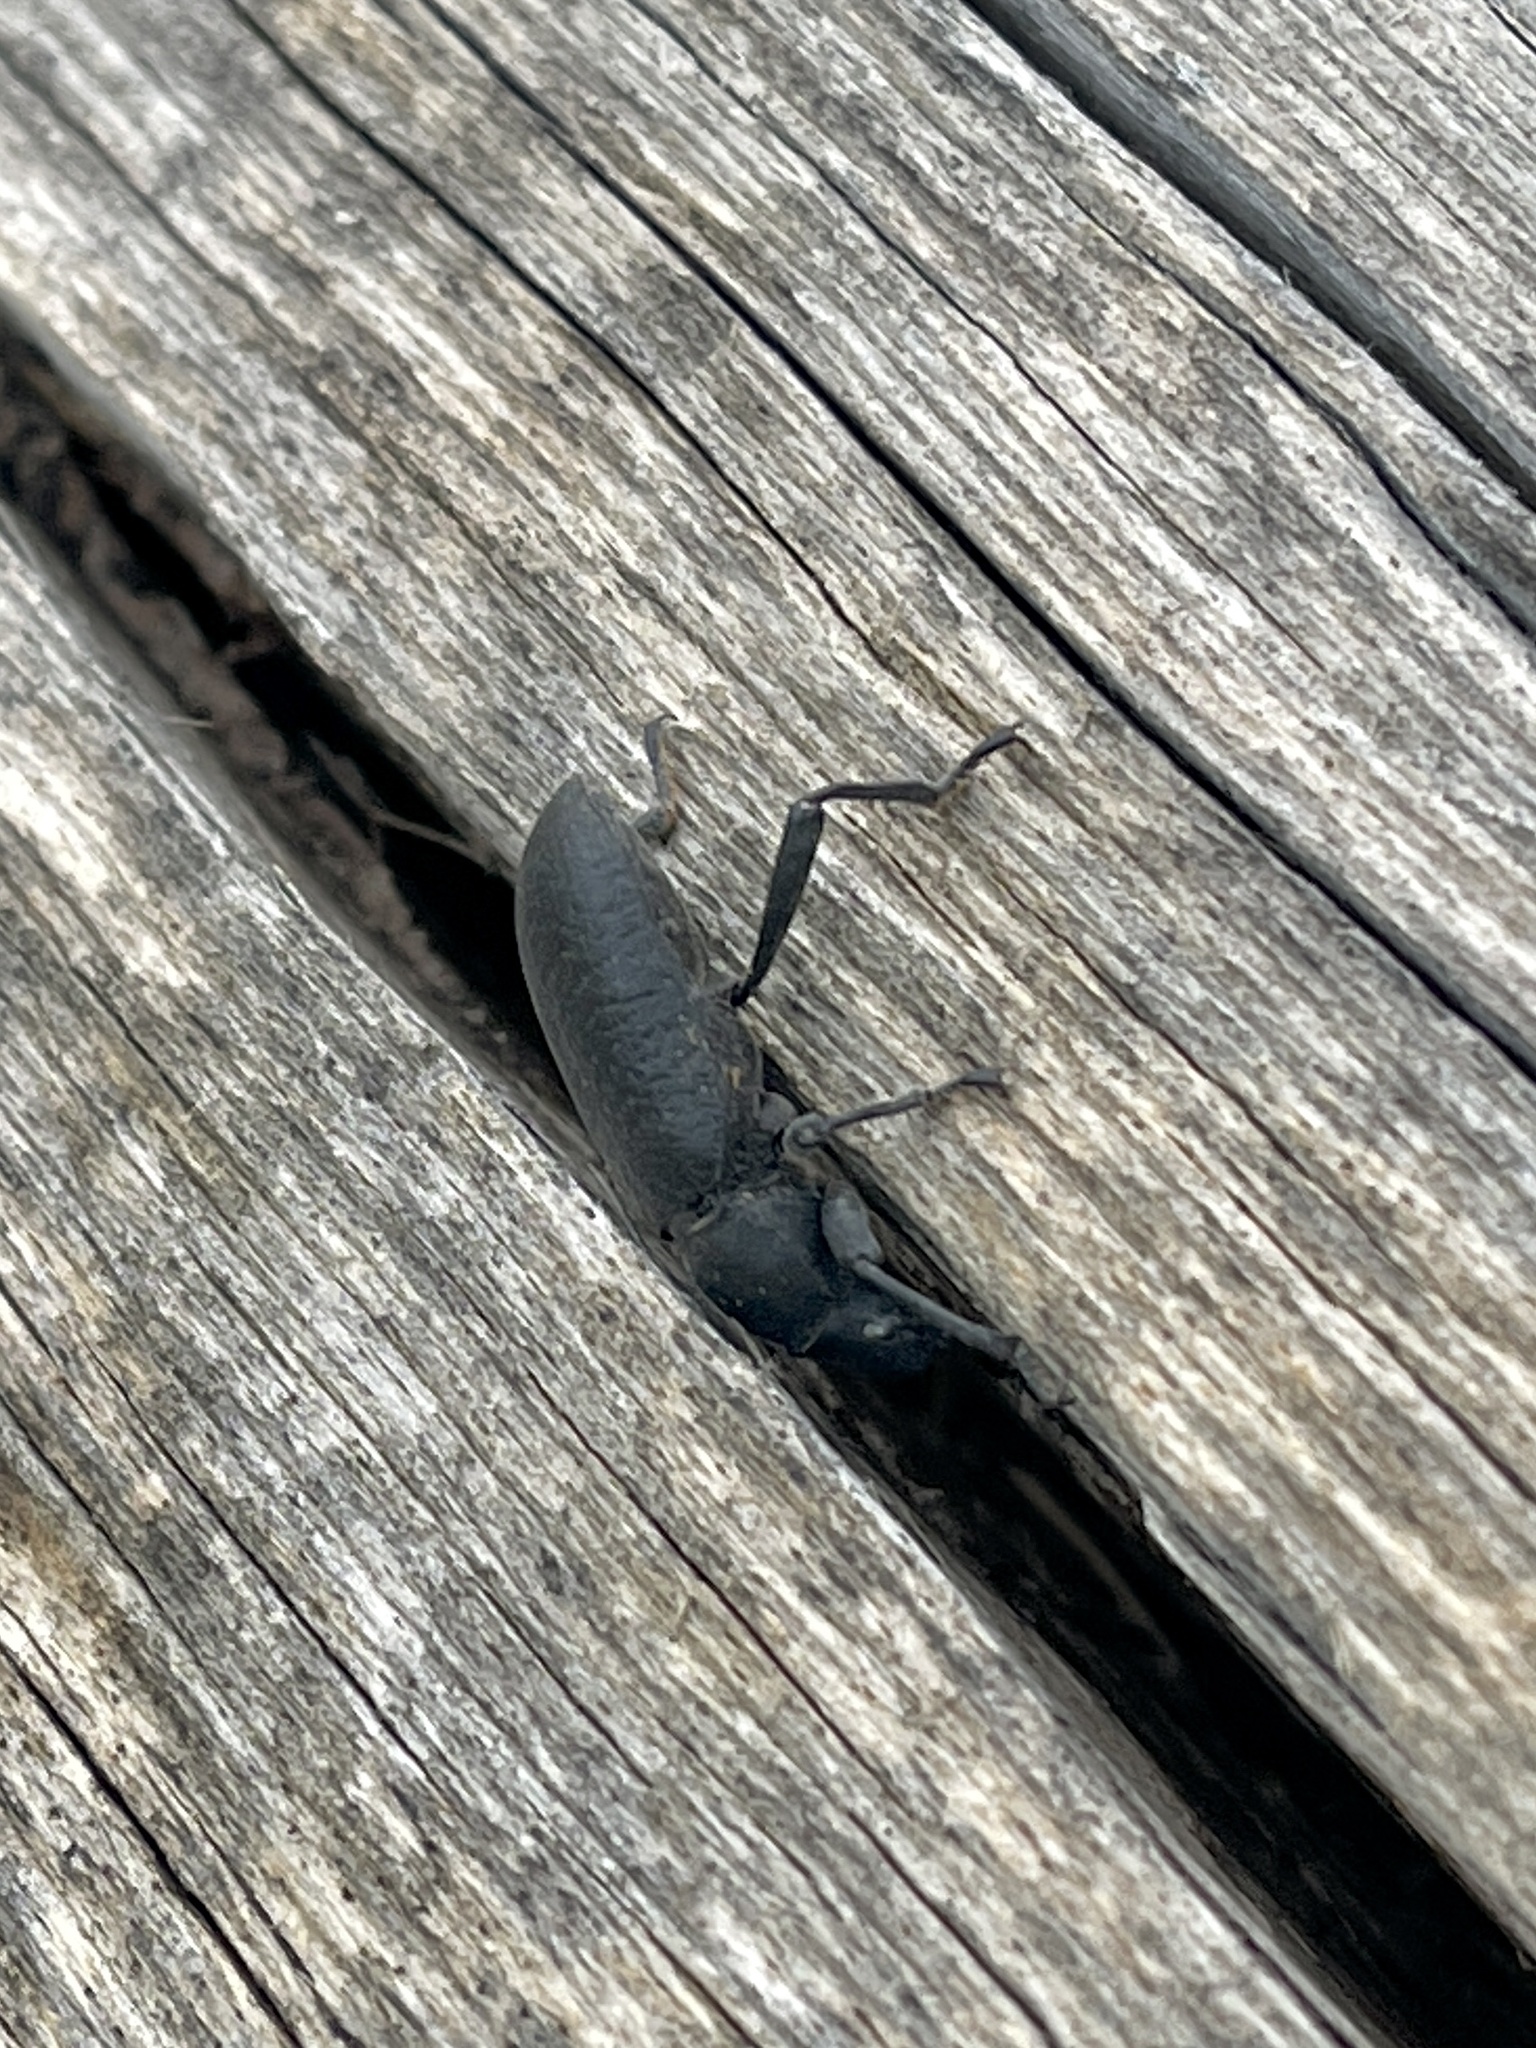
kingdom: Animalia
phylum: Arthropoda
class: Insecta
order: Coleoptera
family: Tenebrionidae
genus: Iphthiminus
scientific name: Iphthiminus lewisii
